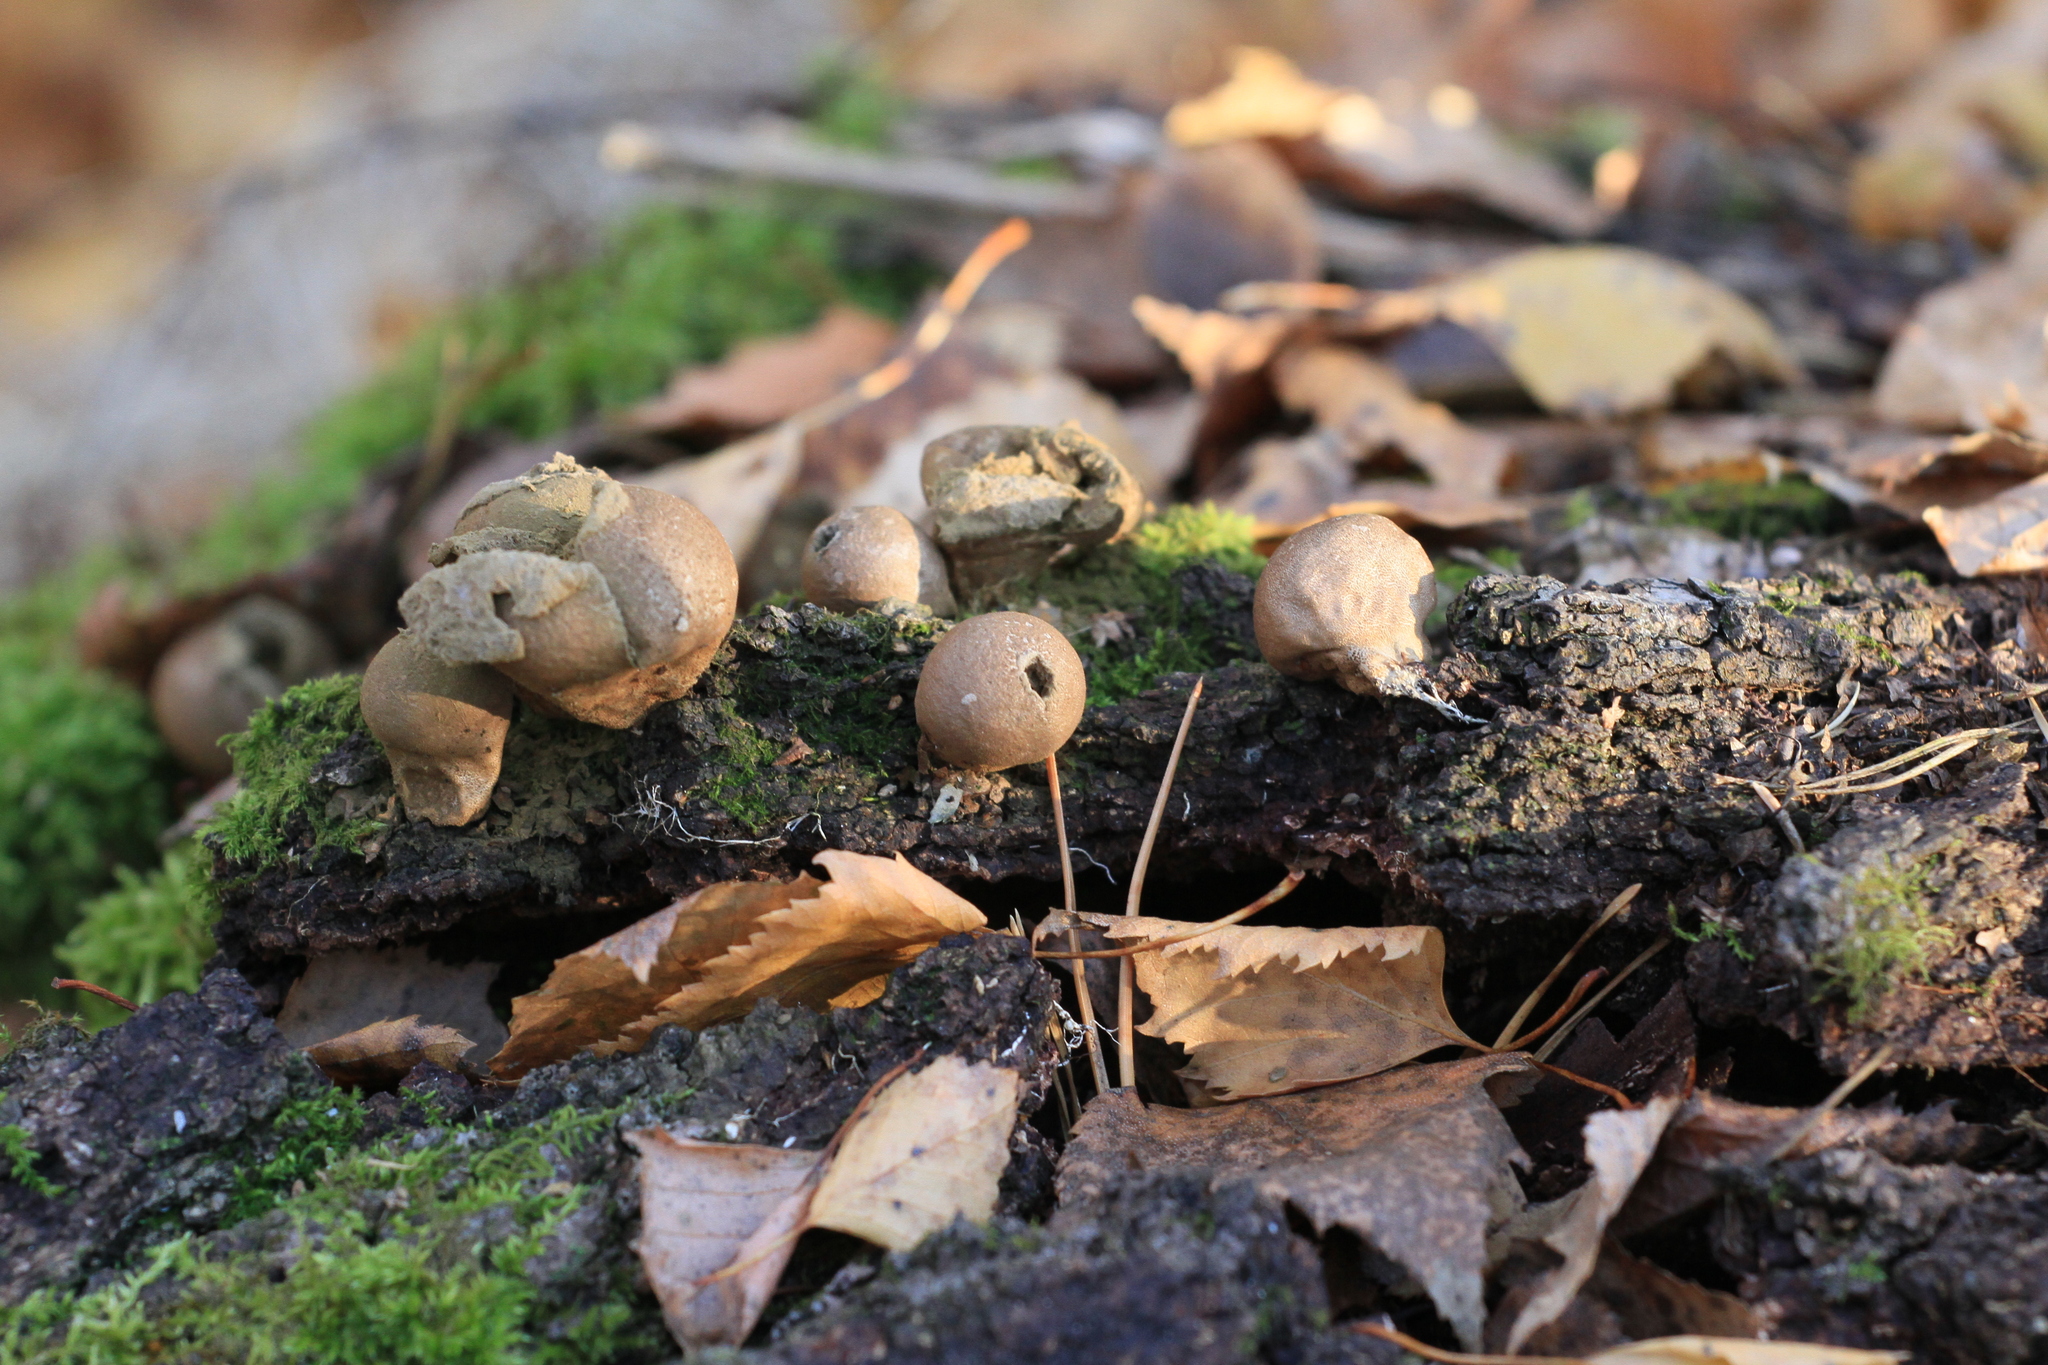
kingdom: Fungi
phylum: Basidiomycota
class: Agaricomycetes
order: Agaricales
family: Lycoperdaceae
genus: Apioperdon
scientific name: Apioperdon pyriforme
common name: Pear-shaped puffball
